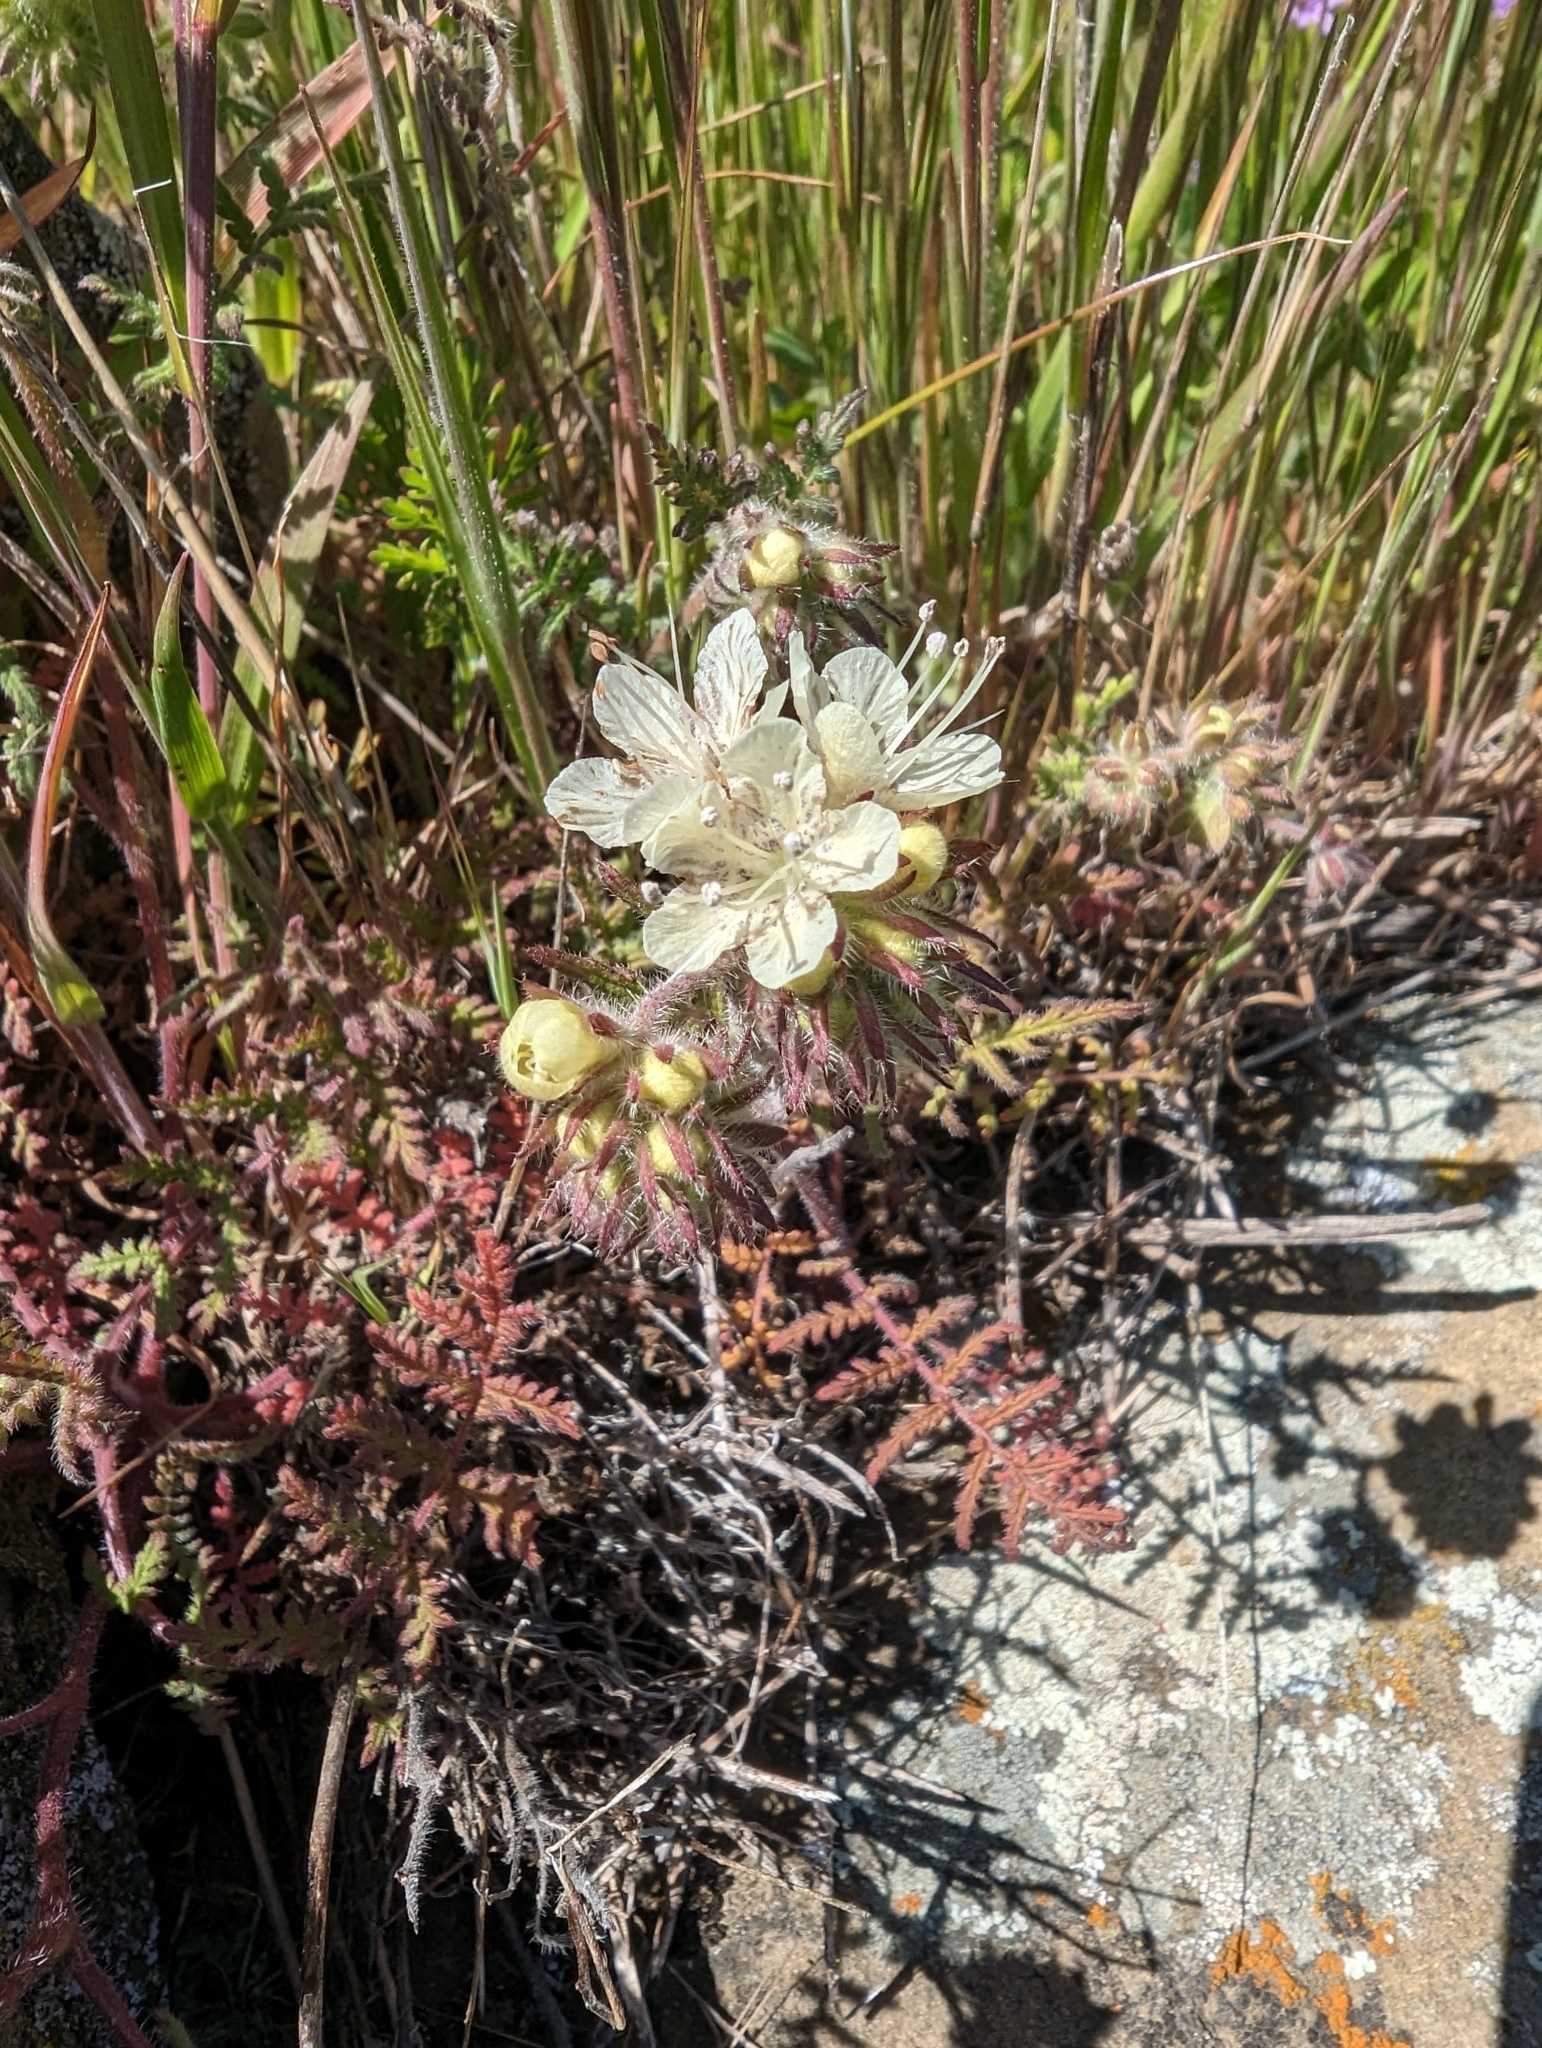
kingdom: Plantae
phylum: Tracheophyta
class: Magnoliopsida
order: Boraginales
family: Hydrophyllaceae
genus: Phacelia
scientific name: Phacelia distans
